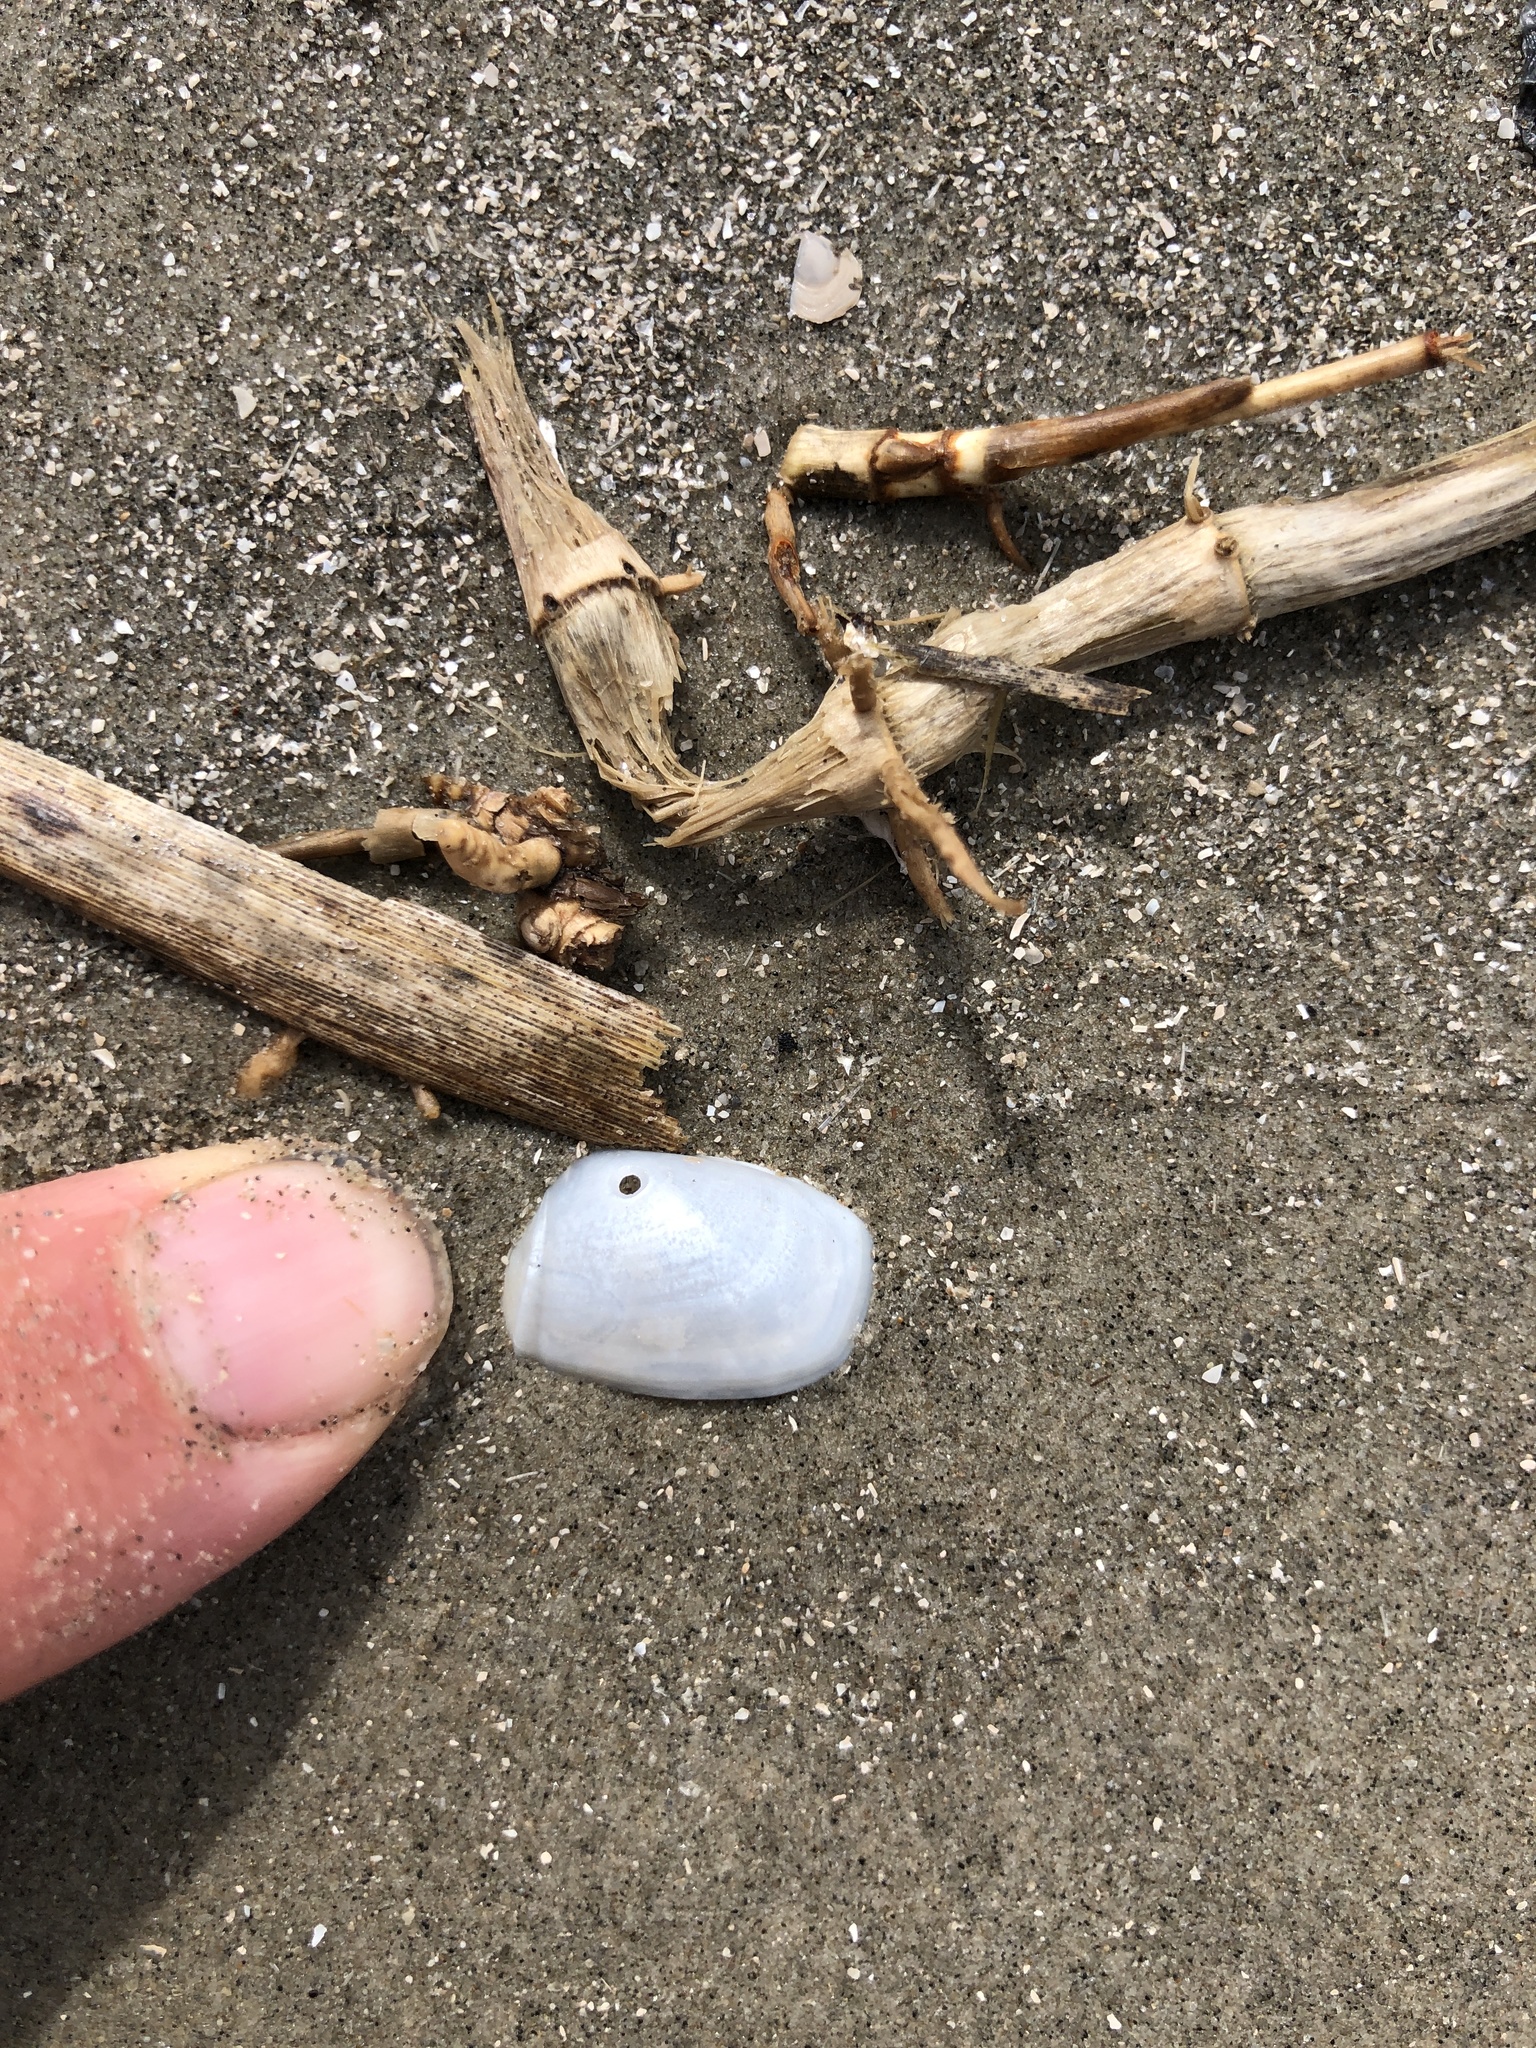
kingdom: Animalia
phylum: Mollusca
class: Bivalvia
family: Periplomatidae
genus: Periploma
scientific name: Periploma inequale
